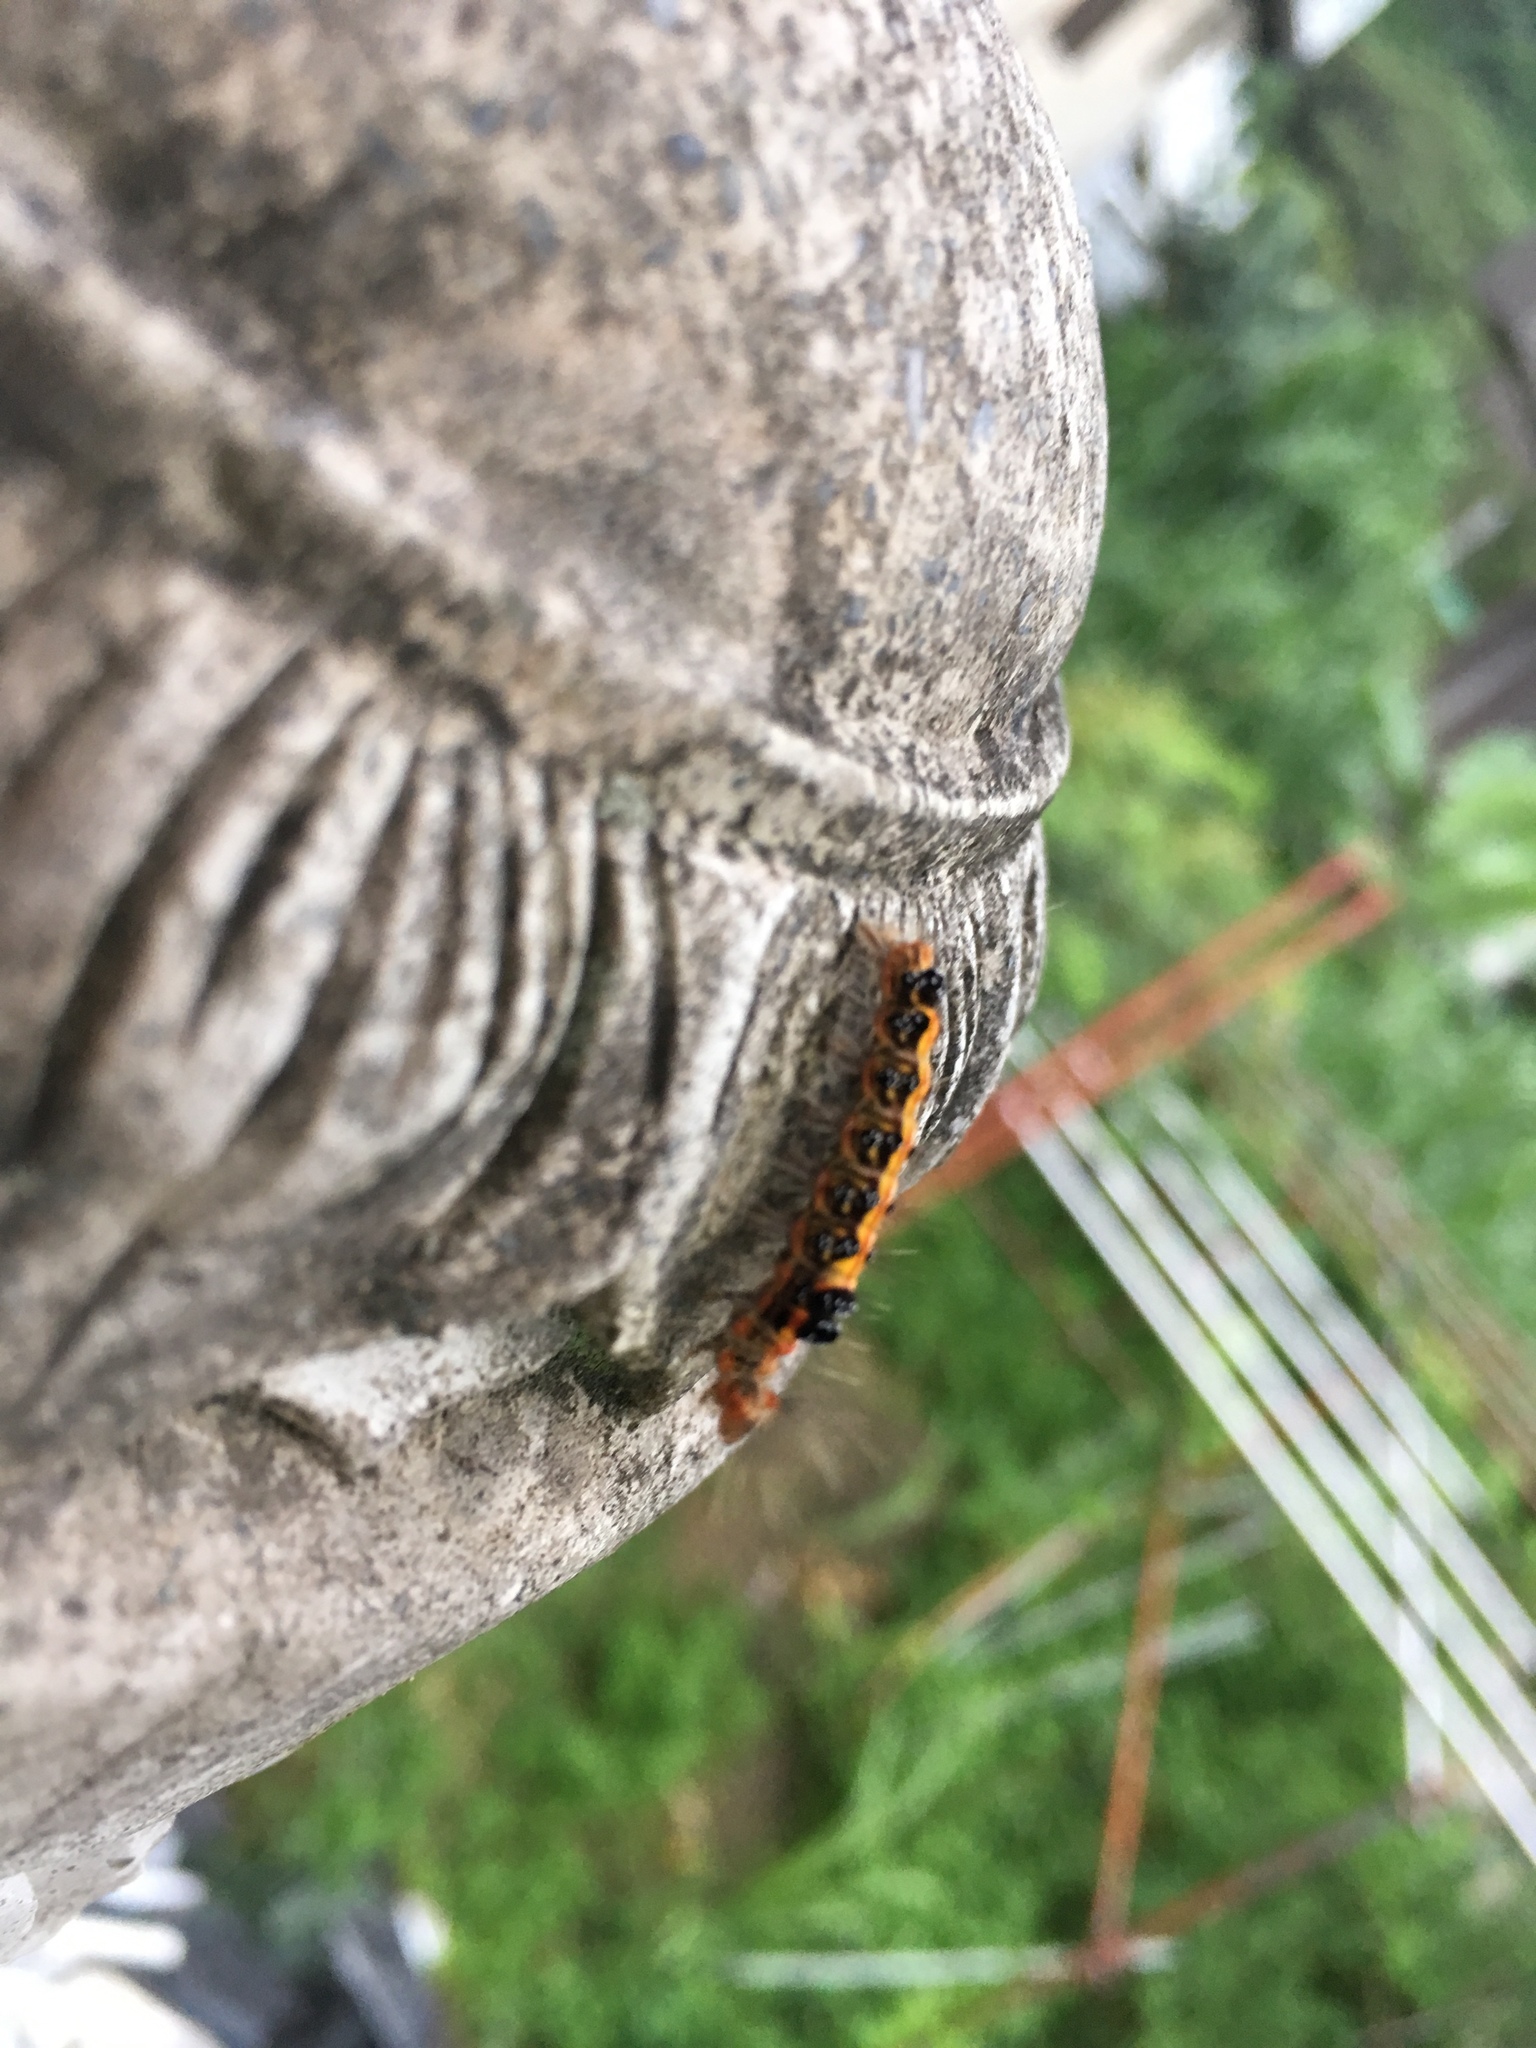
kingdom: Animalia
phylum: Arthropoda
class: Insecta
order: Lepidoptera
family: Erebidae
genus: Euproctis
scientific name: Euproctis taiwana
